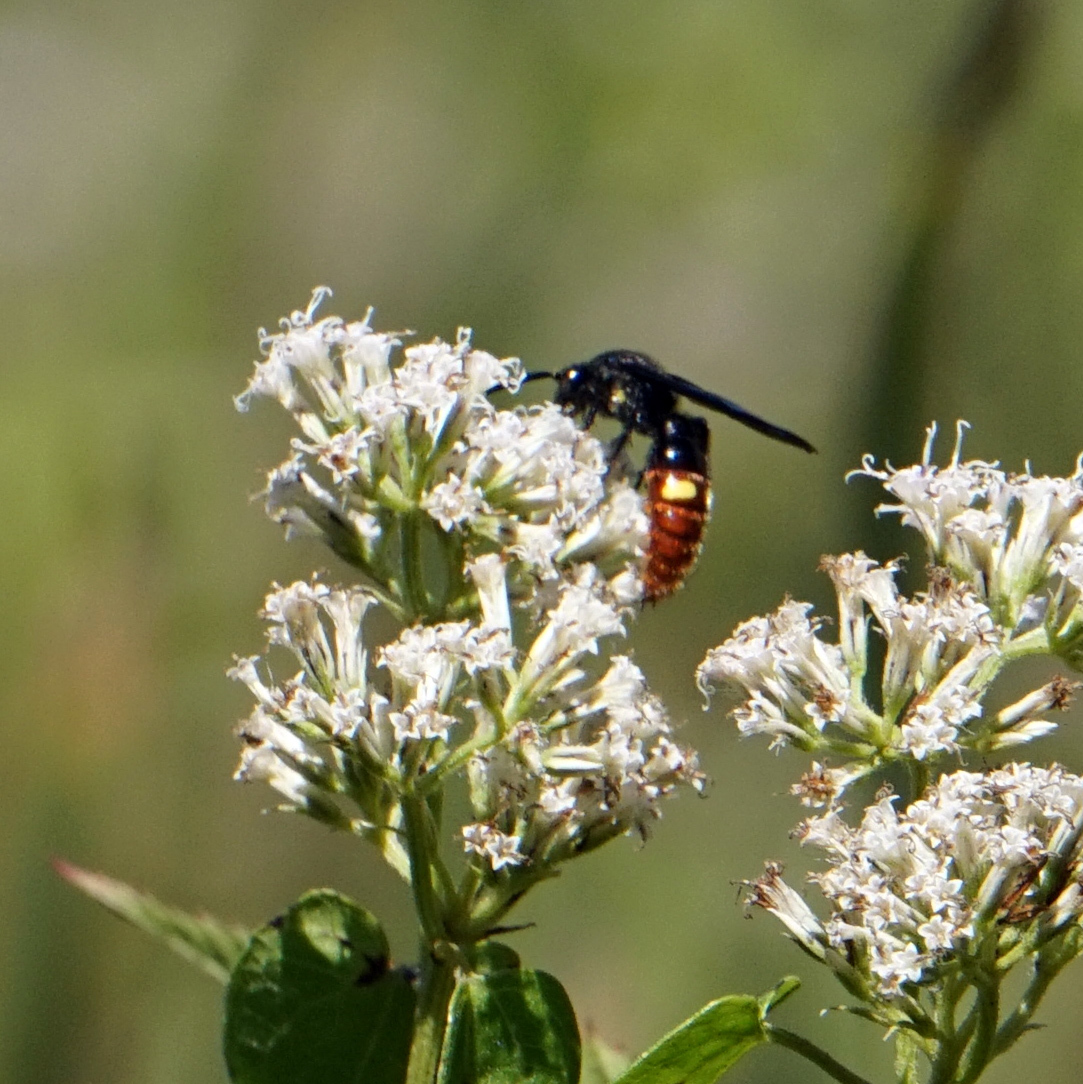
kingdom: Animalia
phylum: Arthropoda
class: Insecta
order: Hymenoptera
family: Scoliidae
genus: Scolia
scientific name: Scolia dubia
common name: Blue-winged scoliid wasp
